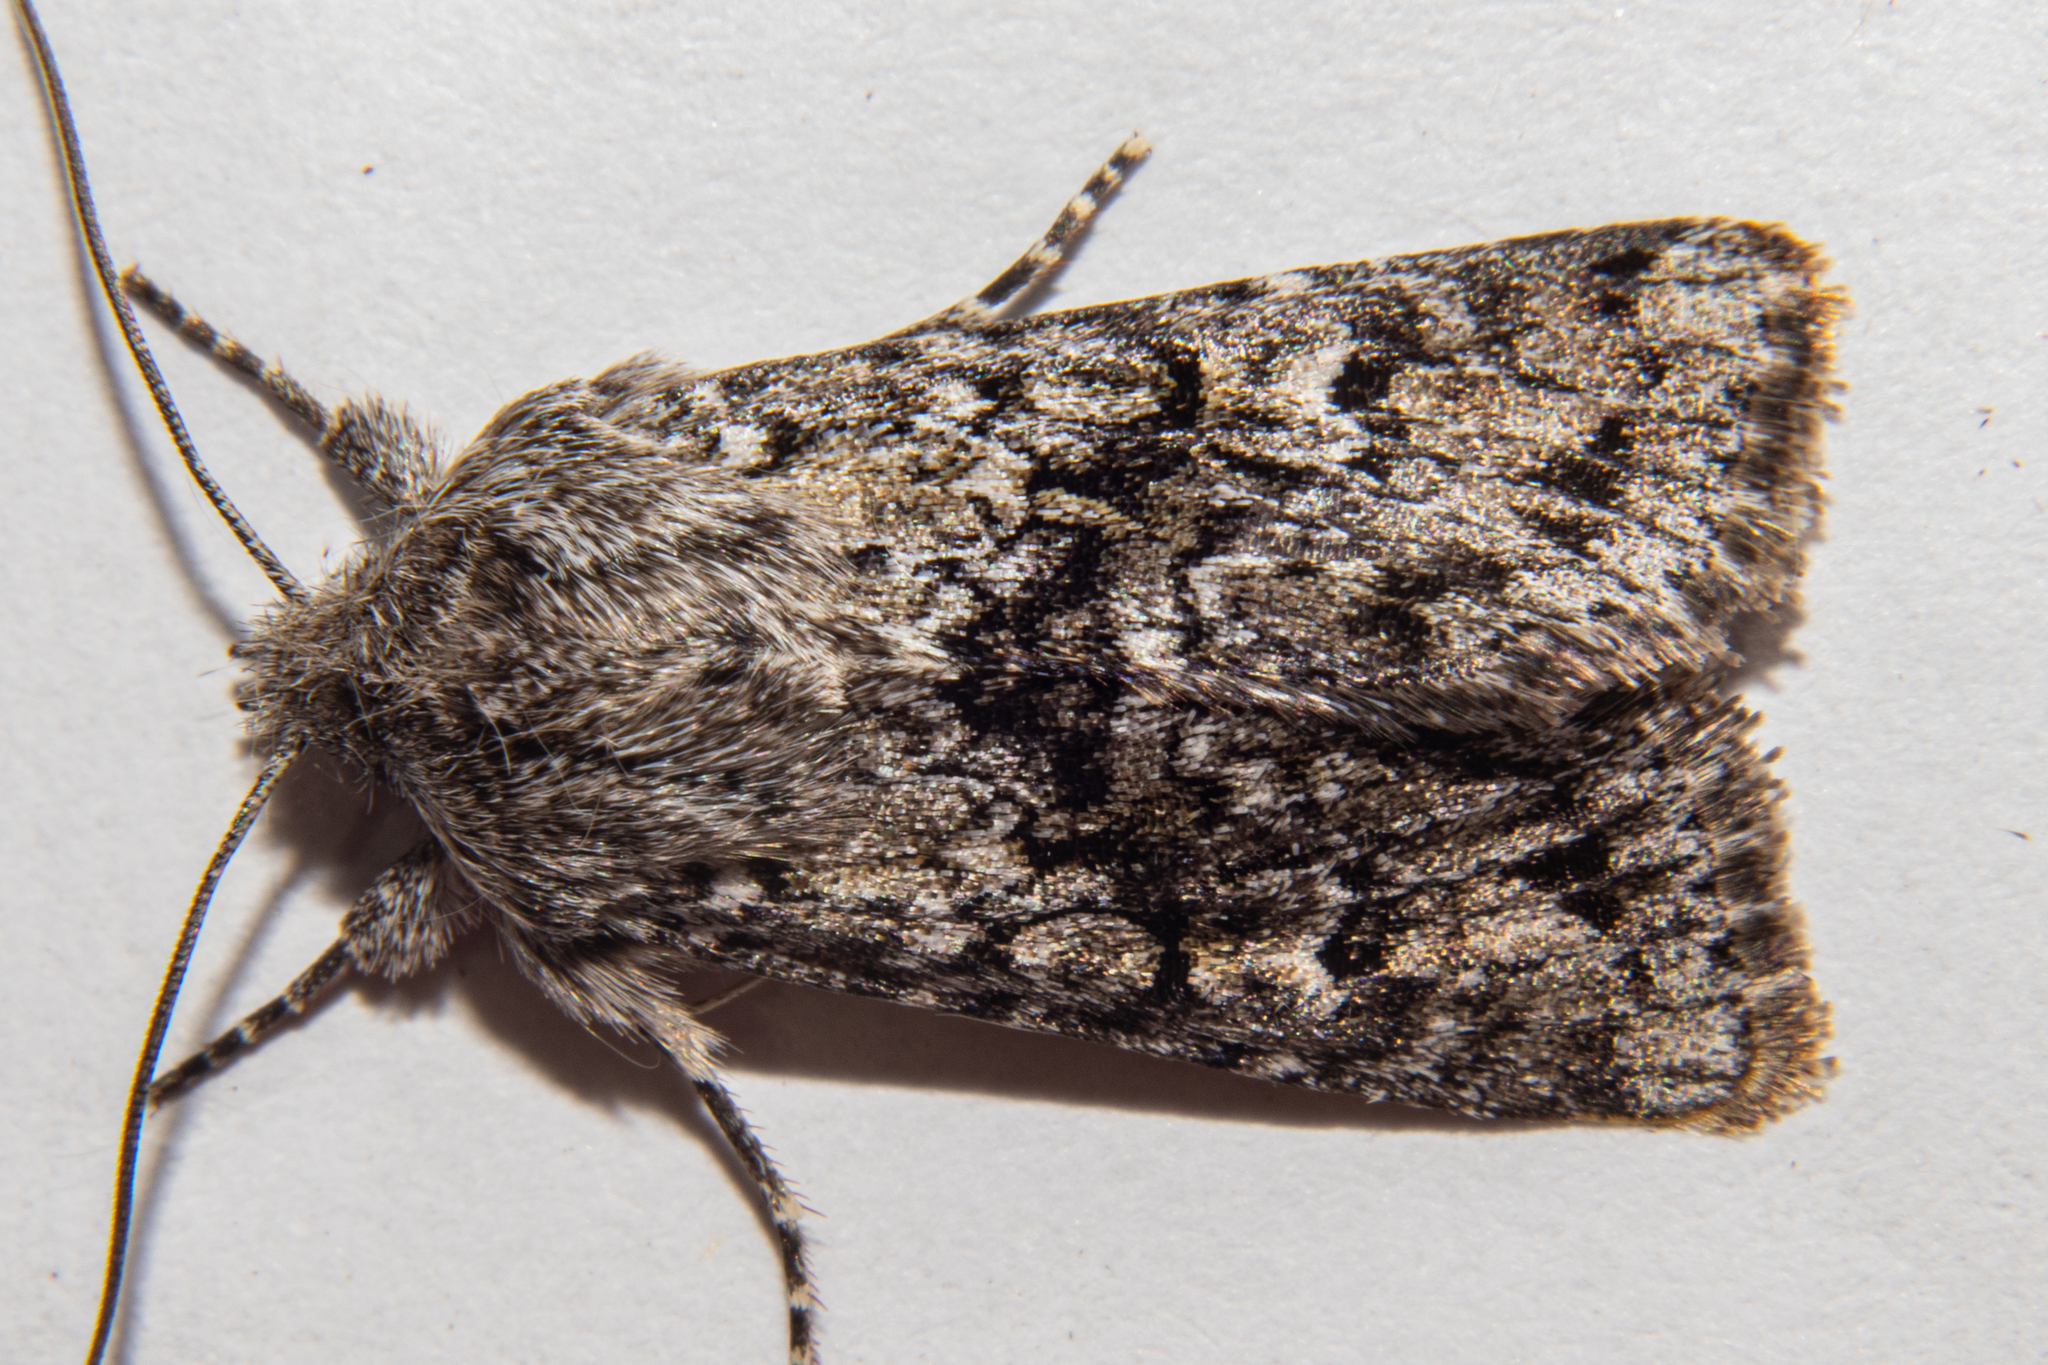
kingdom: Animalia
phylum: Arthropoda
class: Insecta
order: Lepidoptera
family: Noctuidae
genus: Physetica
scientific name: Physetica cucullina
